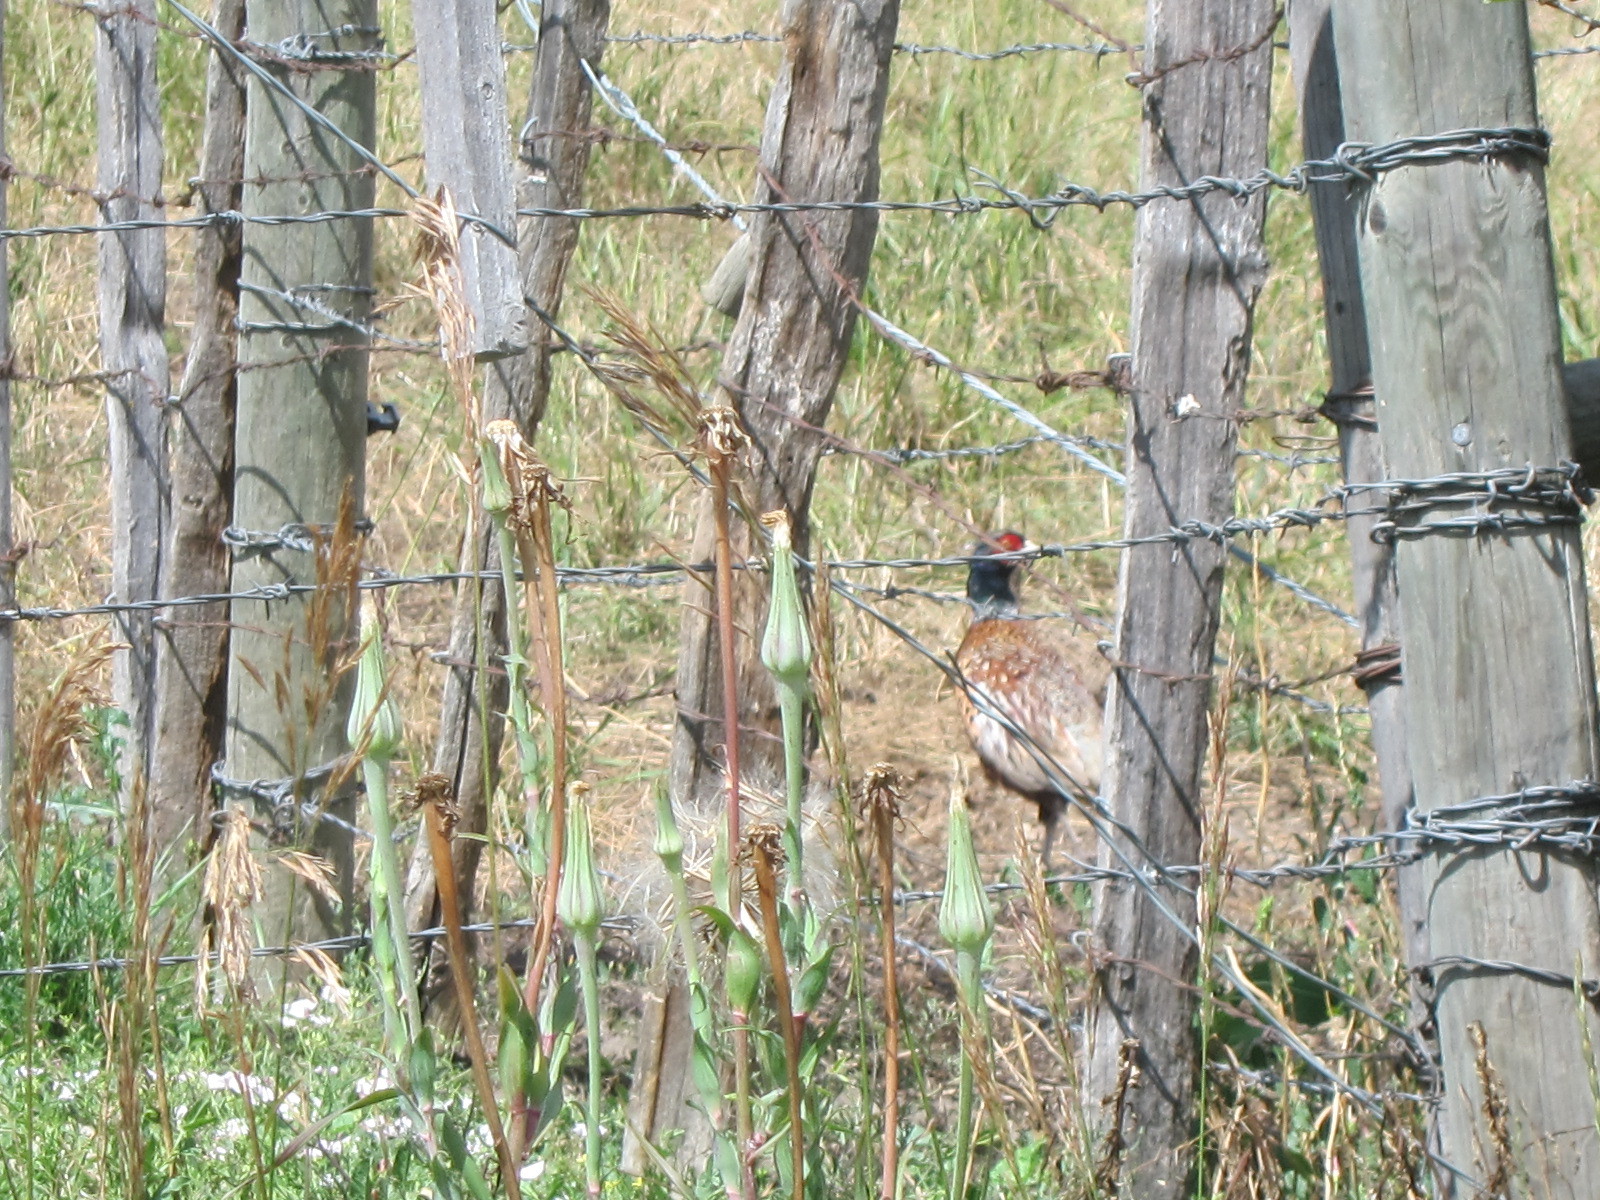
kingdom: Animalia
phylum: Chordata
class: Aves
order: Galliformes
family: Phasianidae
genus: Phasianus
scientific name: Phasianus colchicus
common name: Common pheasant
